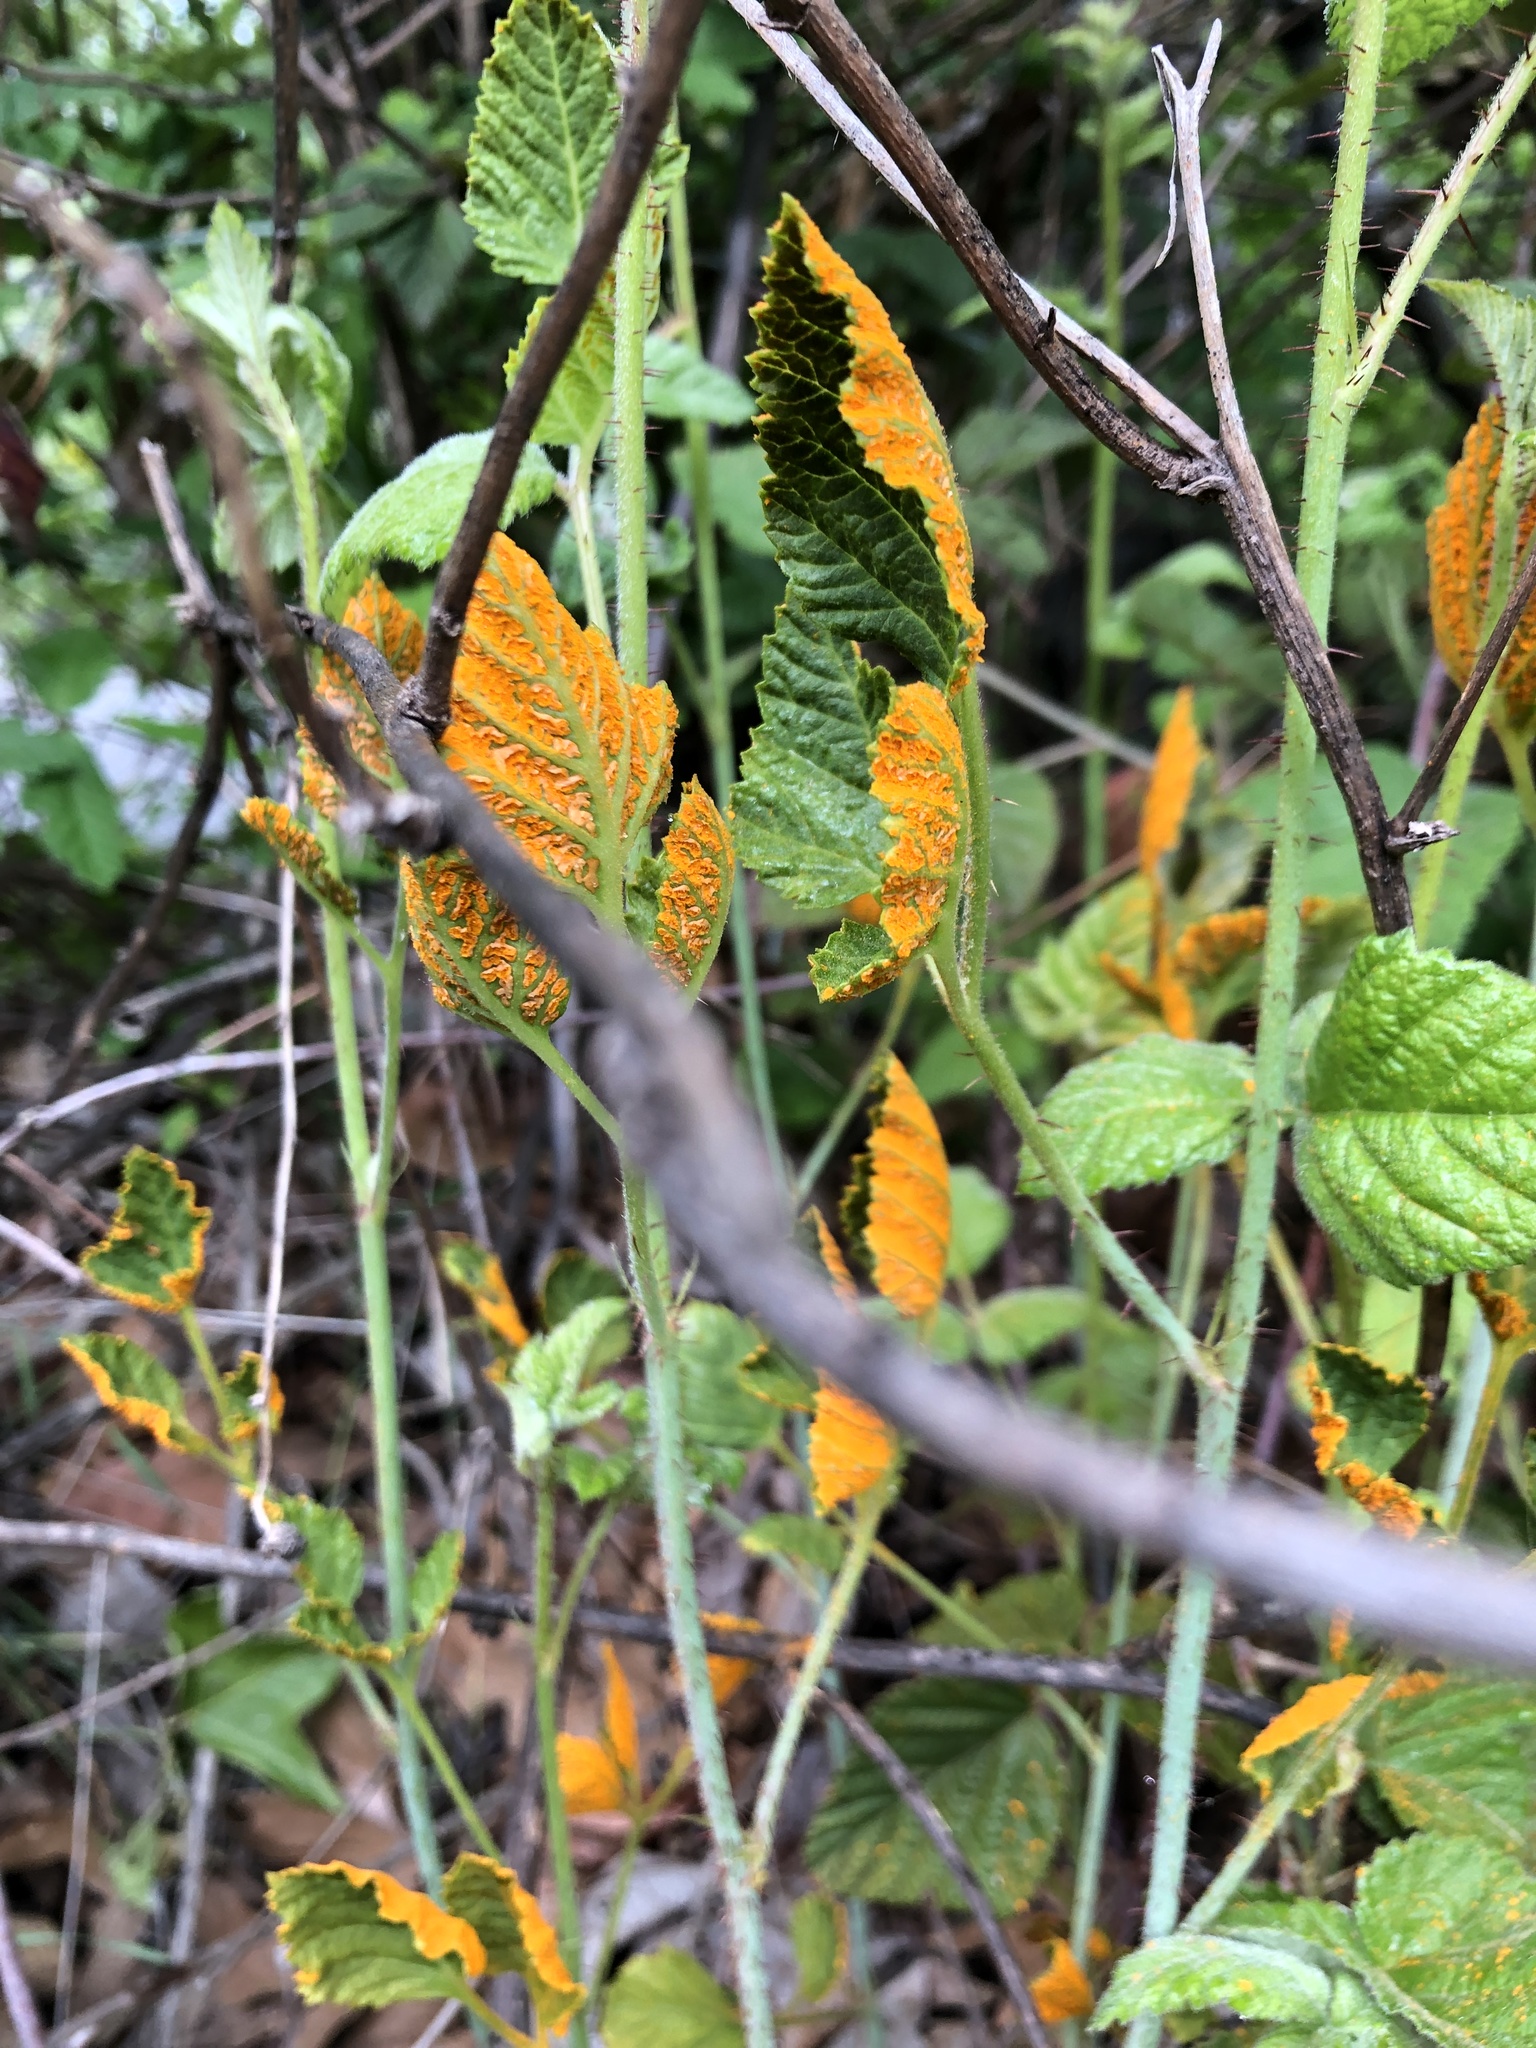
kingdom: Fungi
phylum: Basidiomycota
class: Pucciniomycetes
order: Pucciniales
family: Phragmidiaceae
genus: Arthuriomyces
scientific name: Arthuriomyces peckianus
